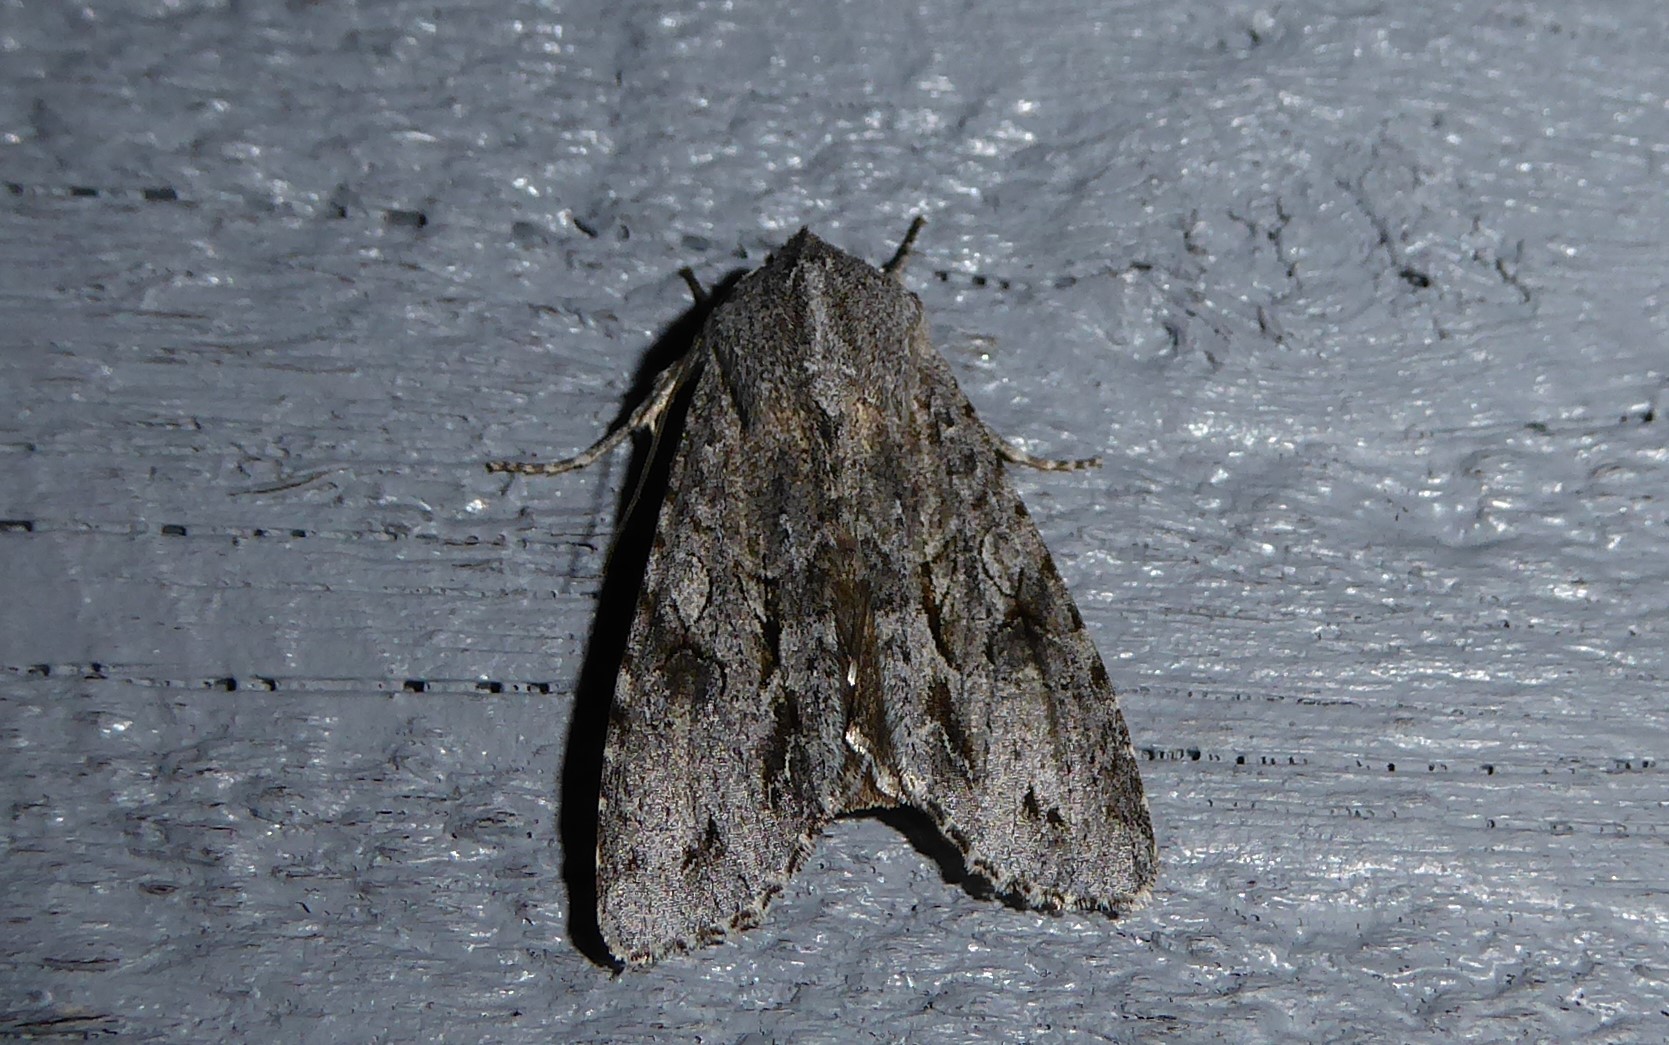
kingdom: Animalia
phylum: Arthropoda
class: Insecta
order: Lepidoptera
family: Noctuidae
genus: Ichneutica
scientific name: Ichneutica
